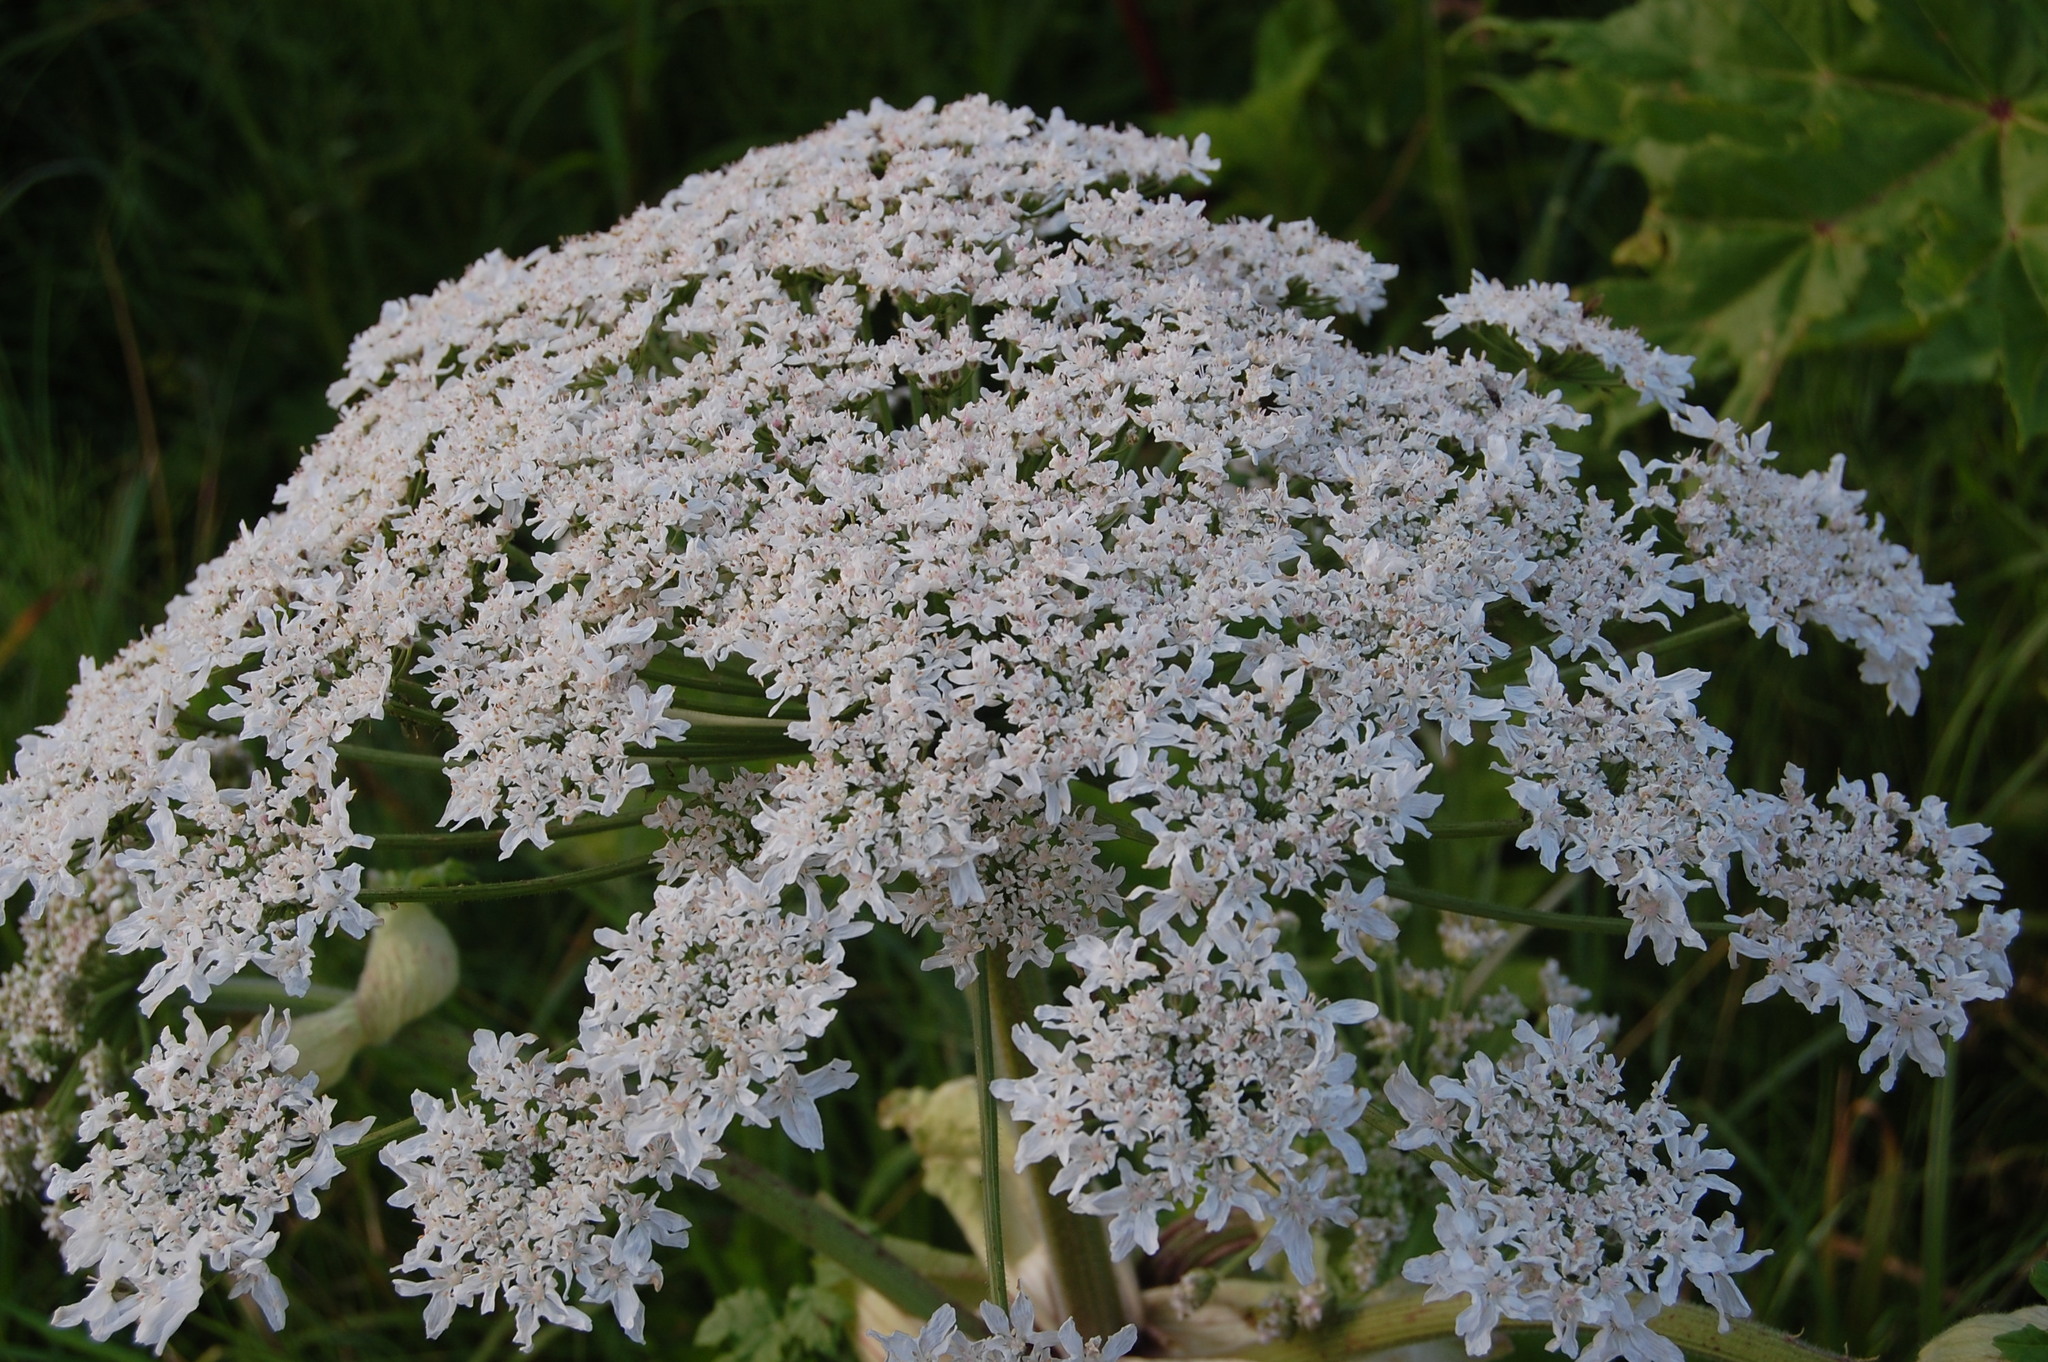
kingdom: Plantae
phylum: Tracheophyta
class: Magnoliopsida
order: Apiales
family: Apiaceae
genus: Heracleum
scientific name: Heracleum sosnowskyi
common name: Sosnowsky's hogweed
